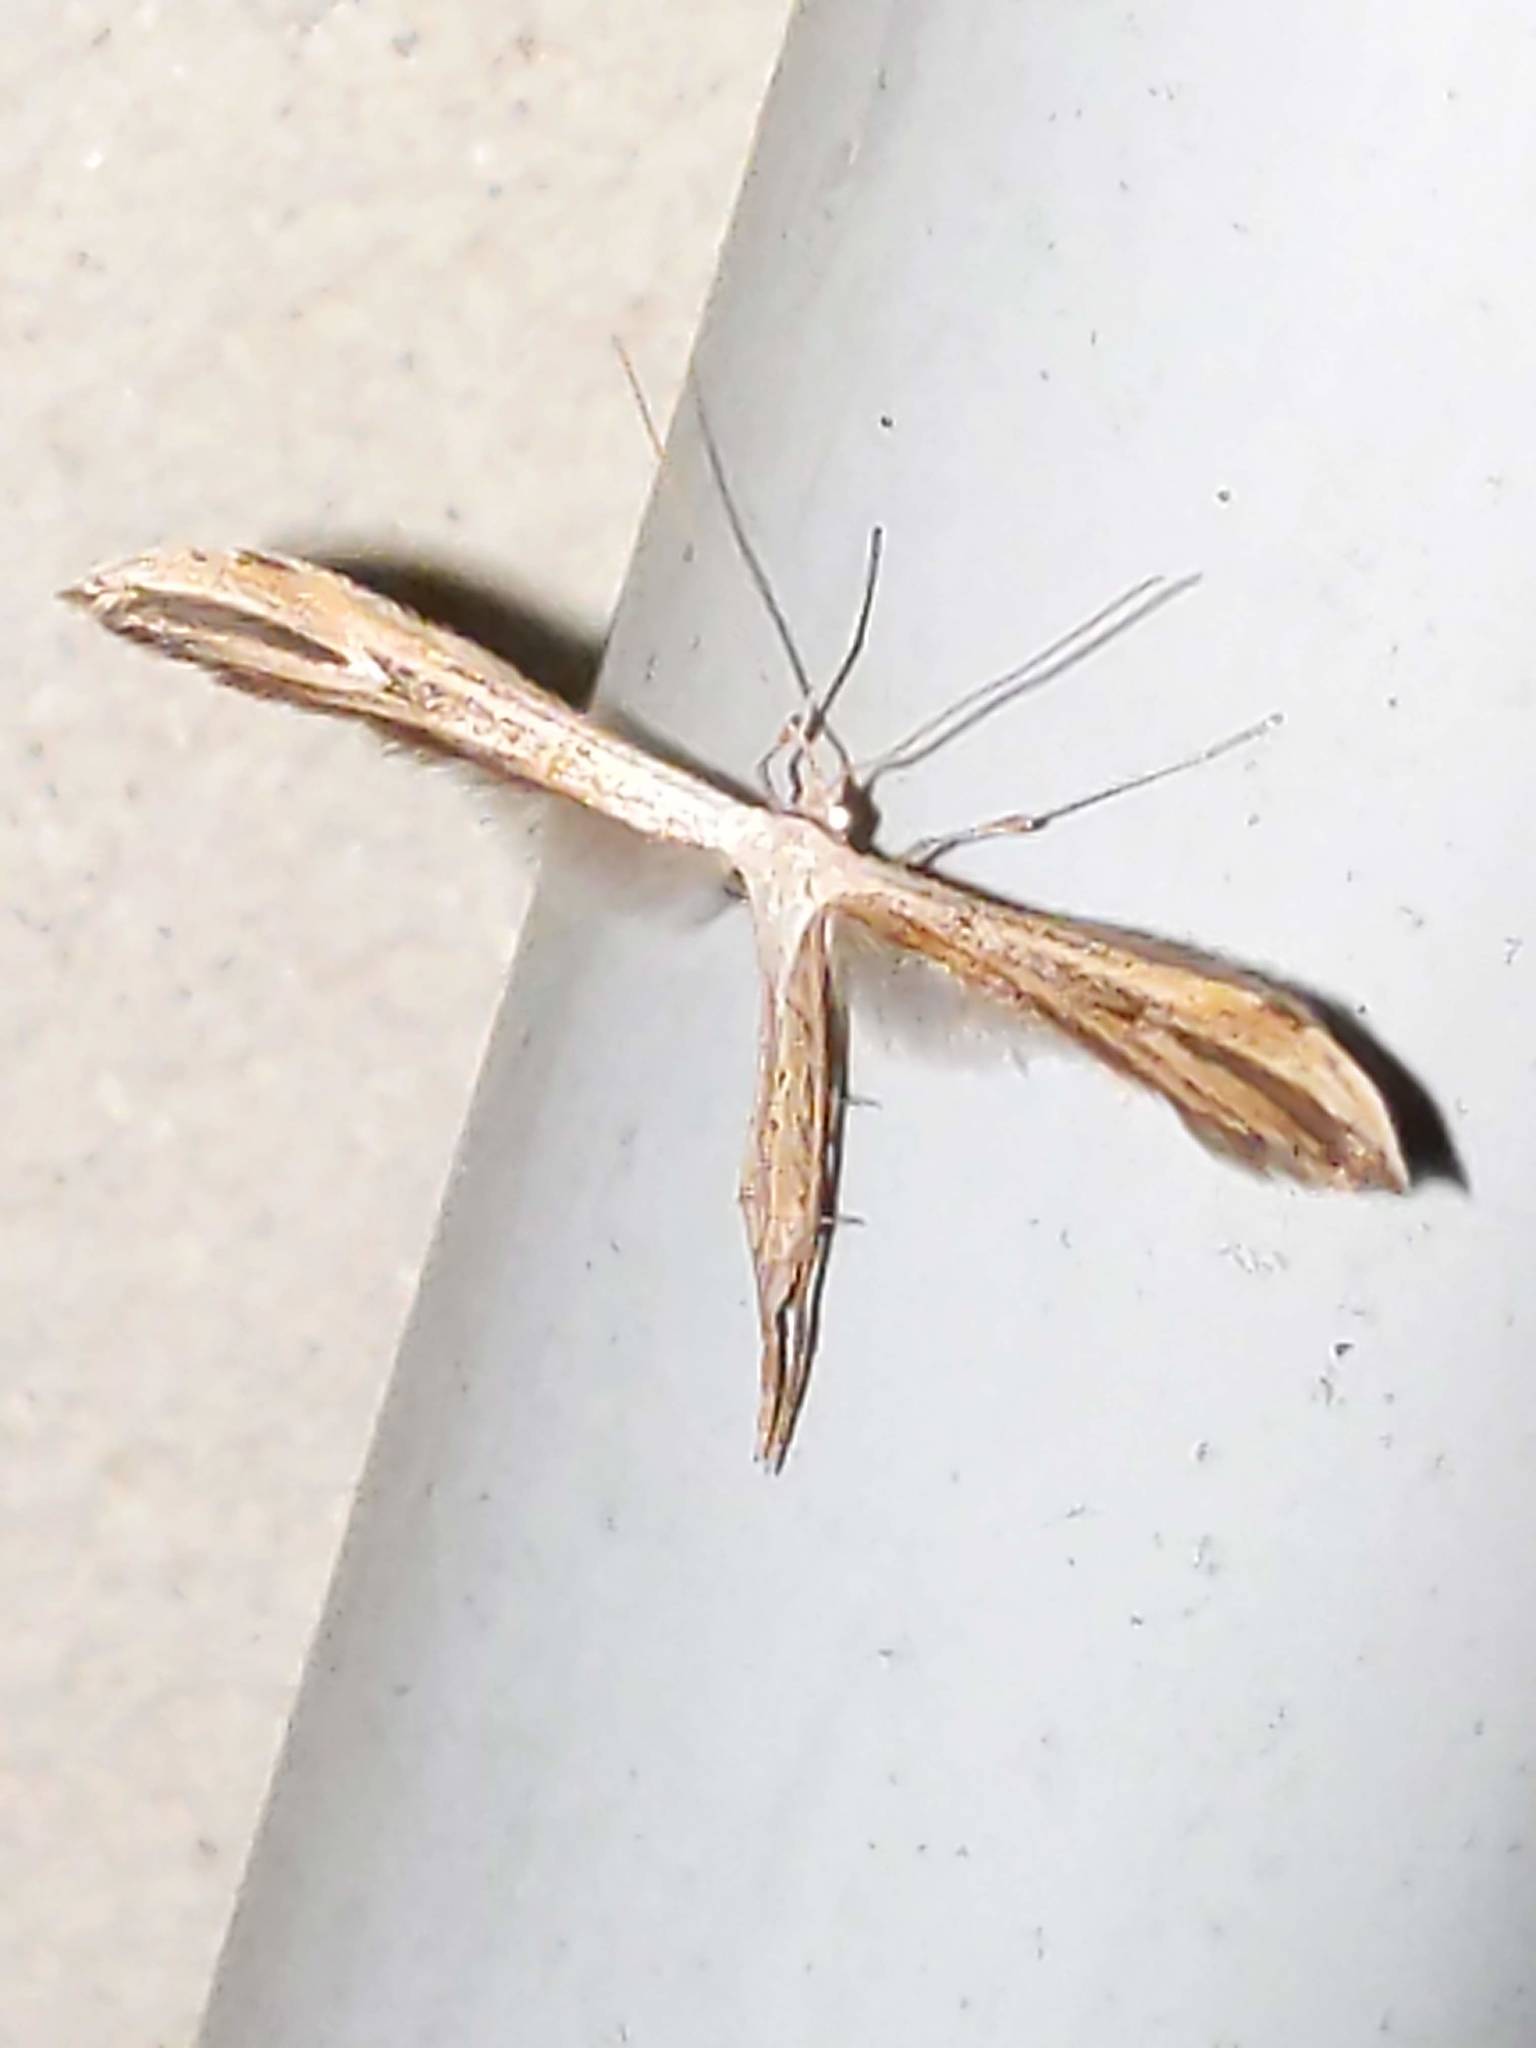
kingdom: Animalia
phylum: Arthropoda
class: Insecta
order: Lepidoptera
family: Pterophoridae
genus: Emmelina
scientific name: Emmelina monodactyla
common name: Common plume
